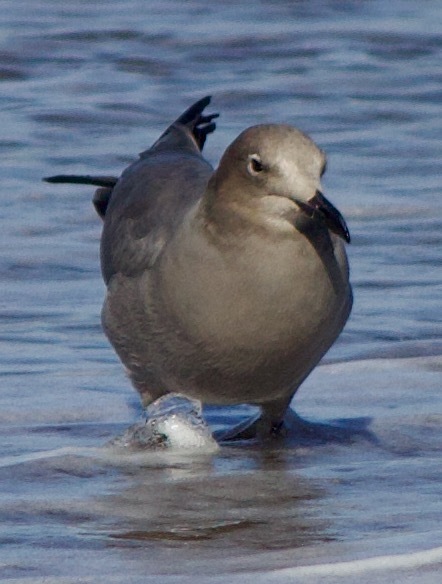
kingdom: Animalia
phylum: Chordata
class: Aves
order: Charadriiformes
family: Laridae
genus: Leucophaeus
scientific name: Leucophaeus modestus
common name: Gray gull
